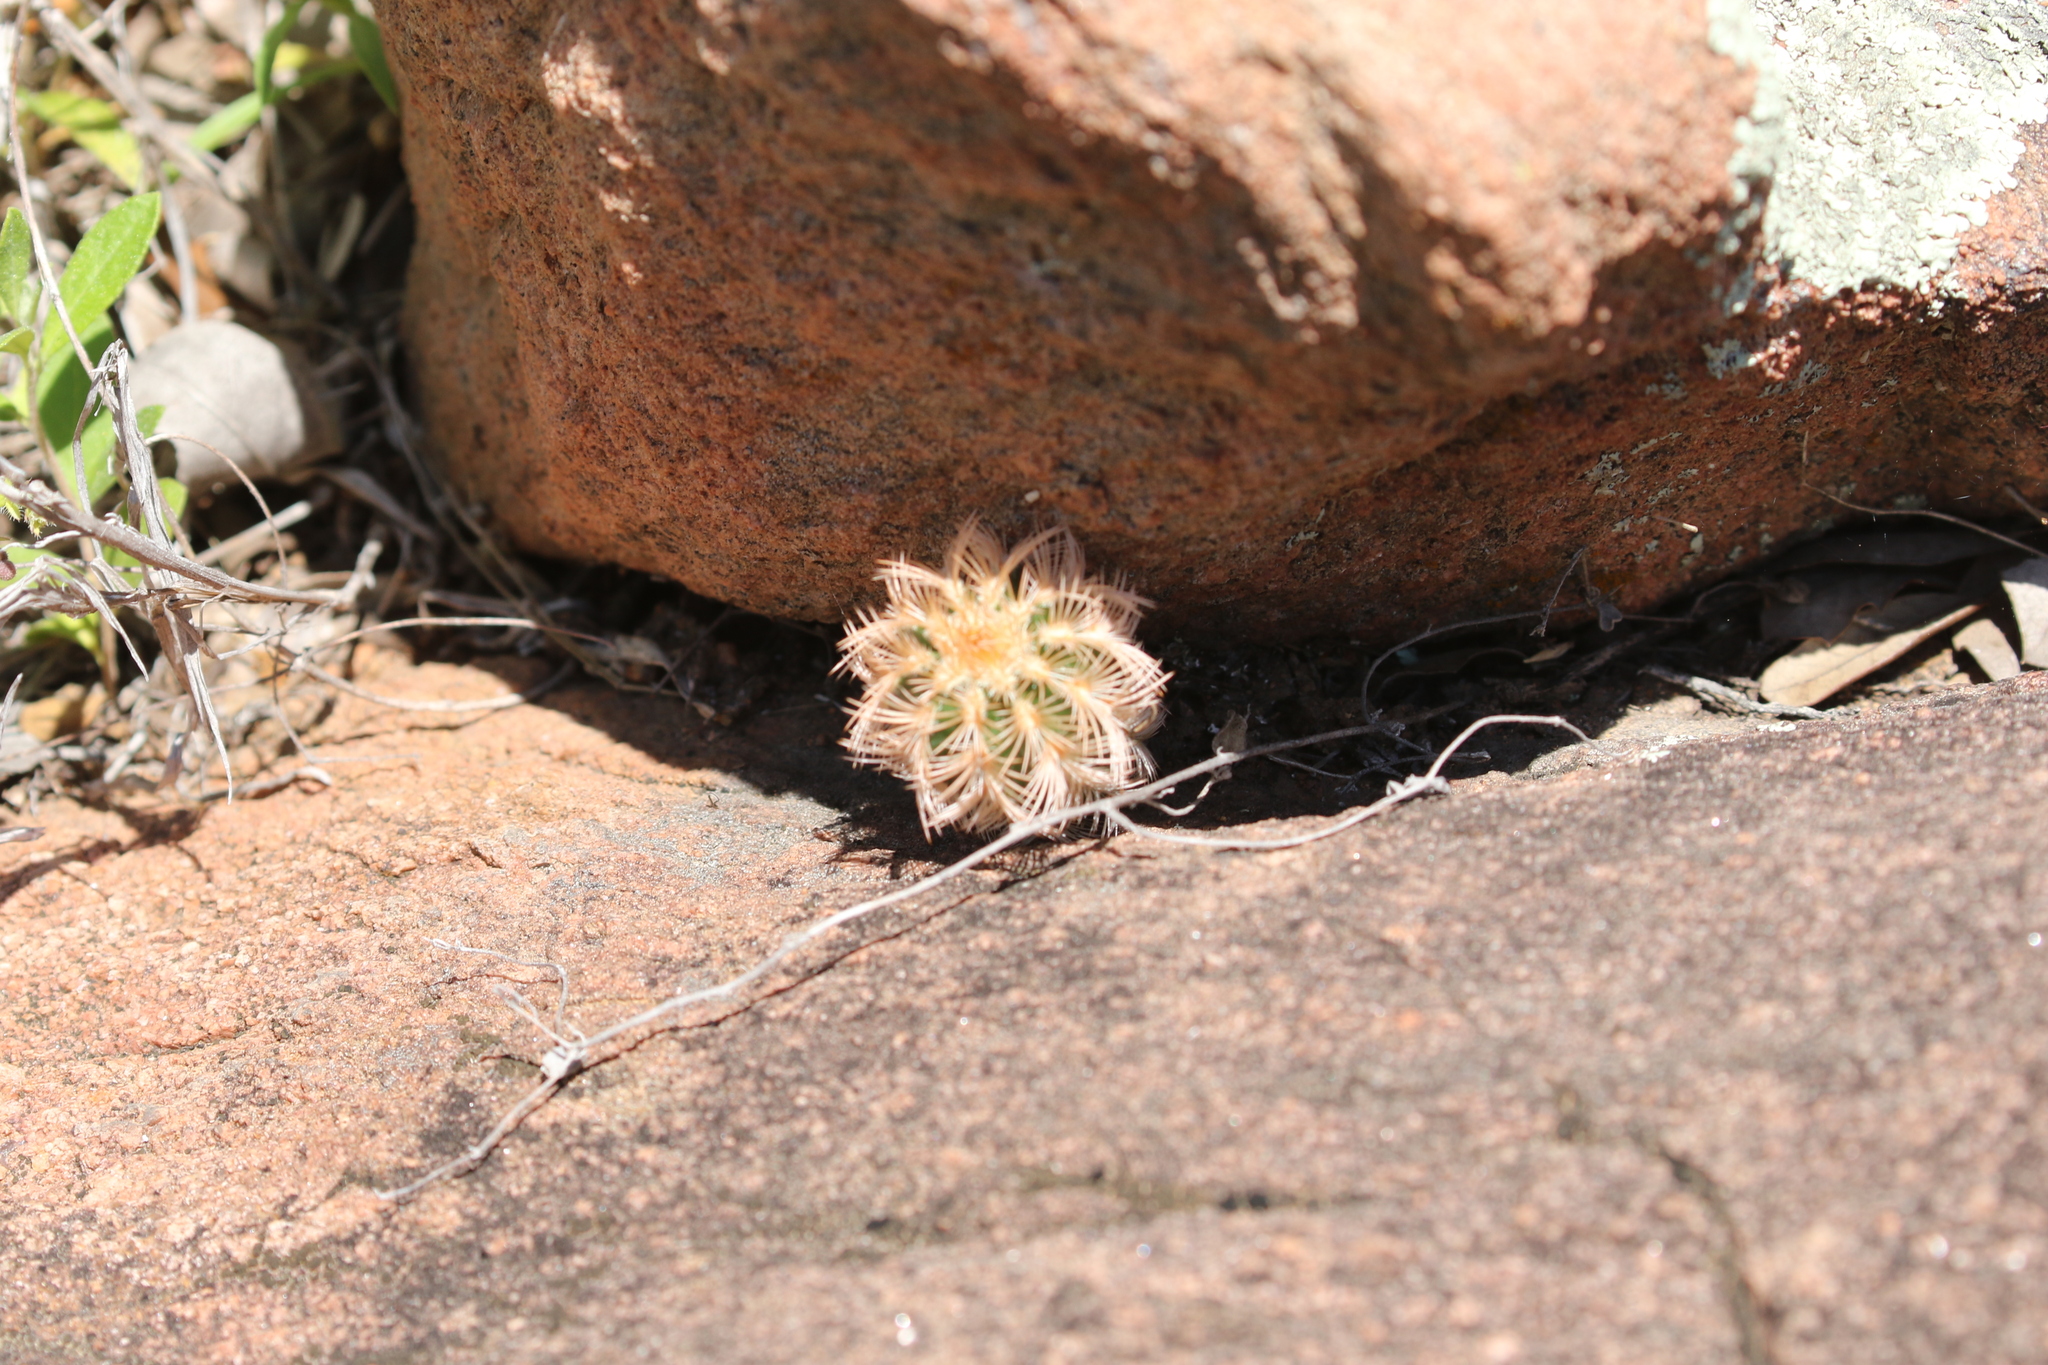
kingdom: Plantae
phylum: Tracheophyta
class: Magnoliopsida
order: Caryophyllales
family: Cactaceae
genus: Echinocereus
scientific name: Echinocereus reichenbachii
